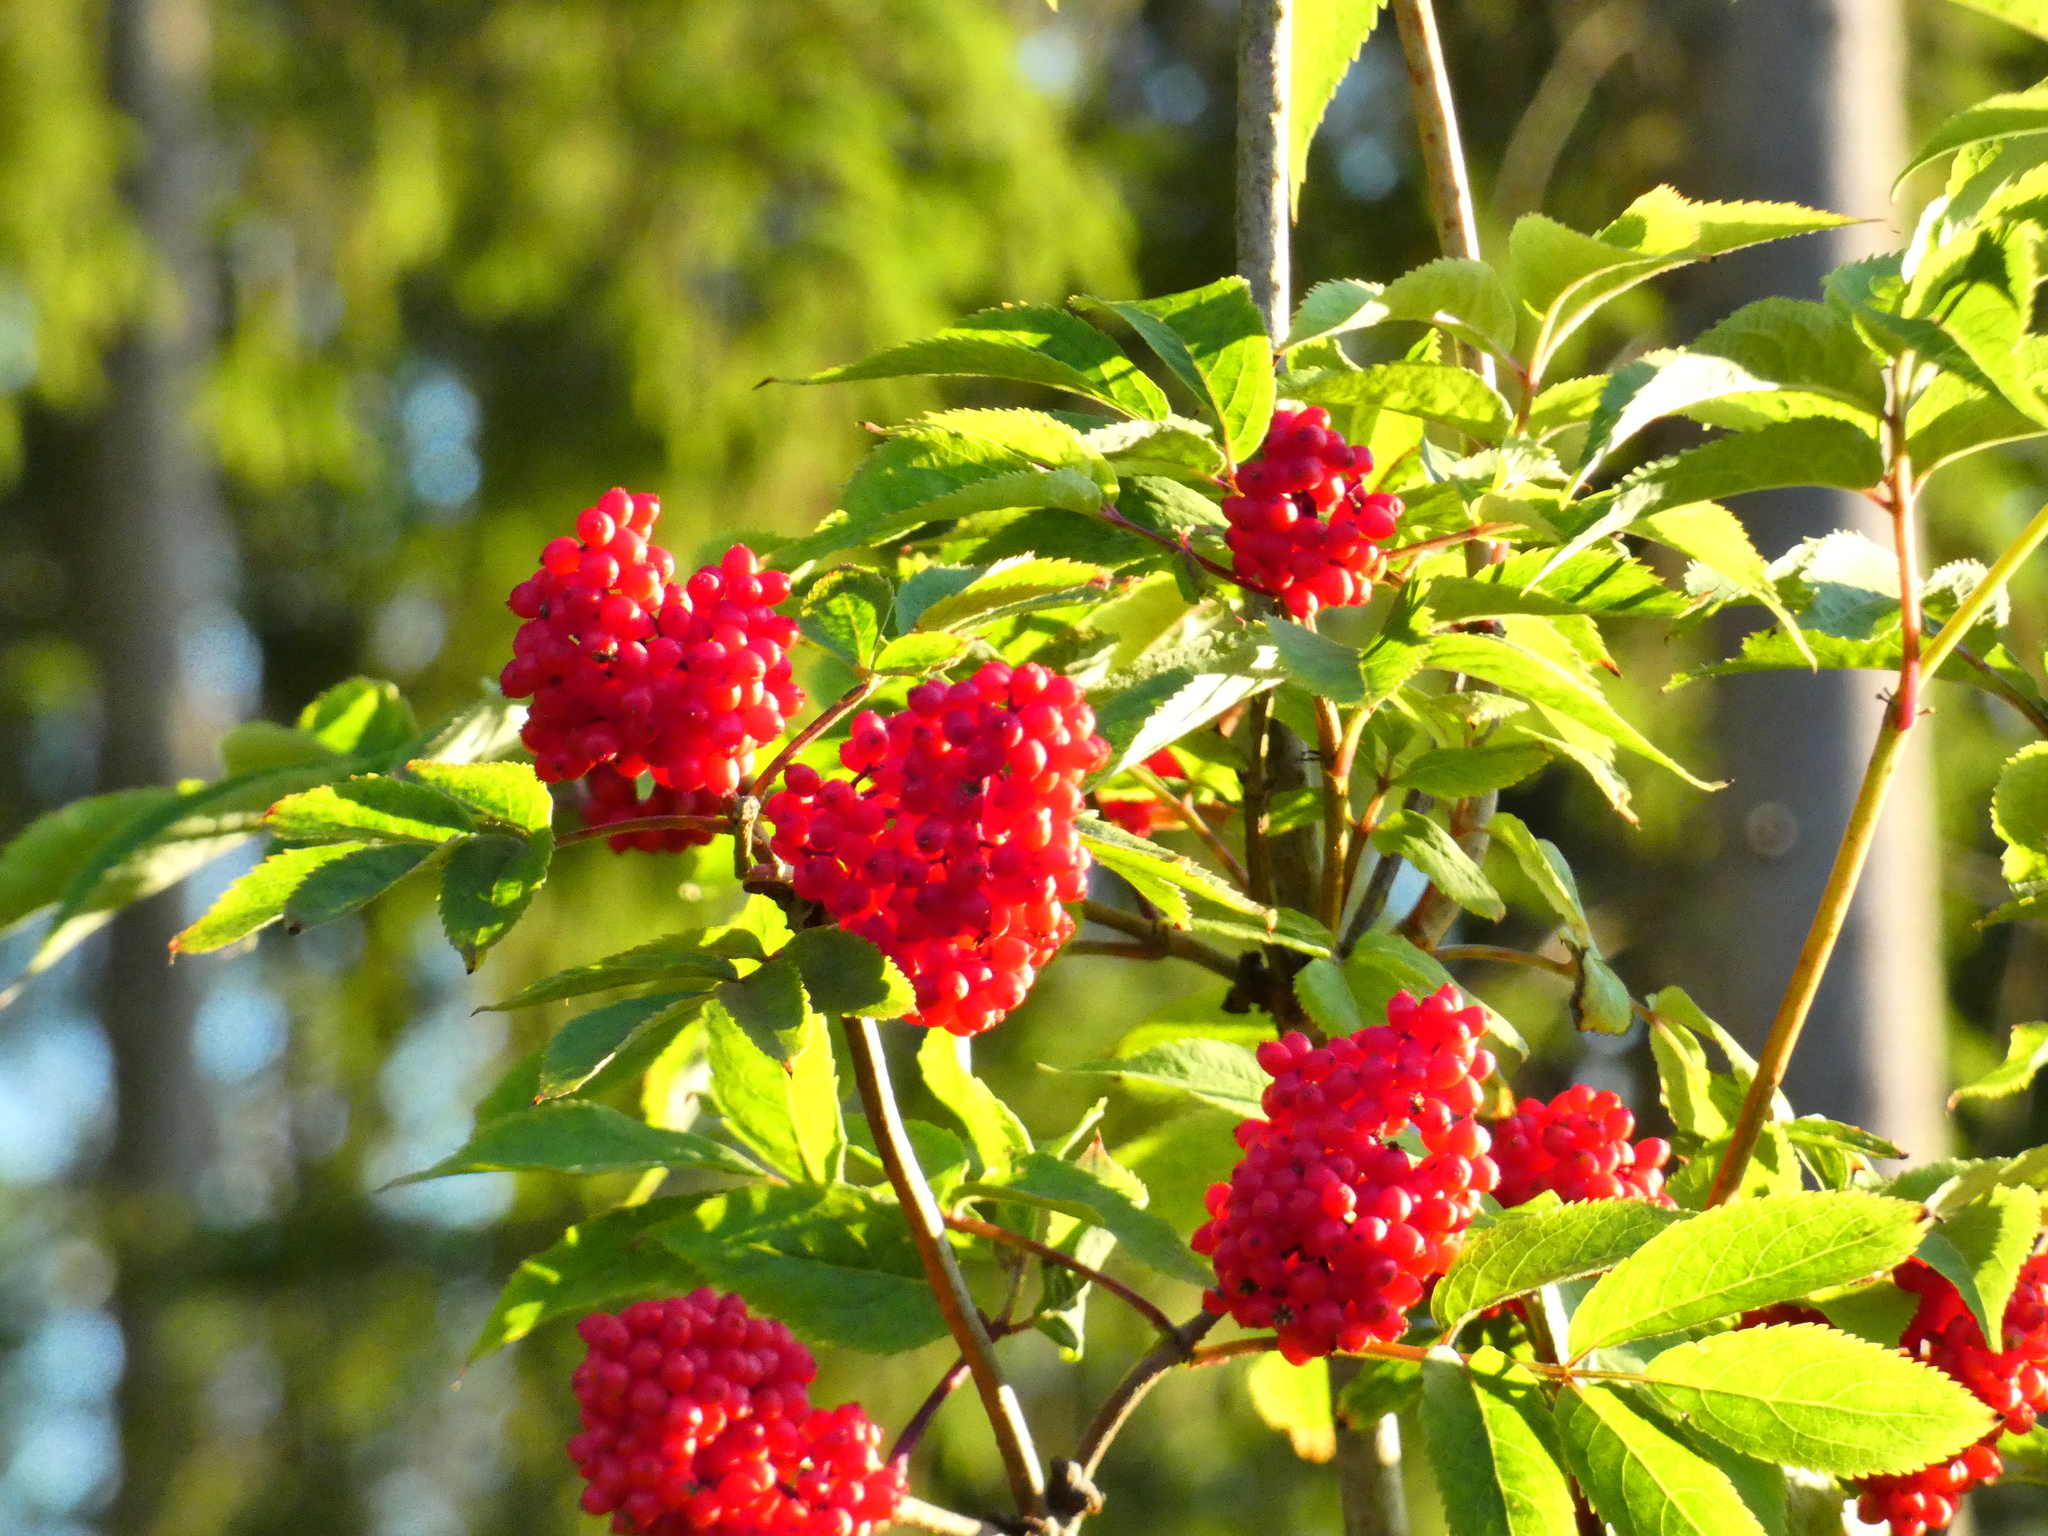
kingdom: Plantae
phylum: Tracheophyta
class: Magnoliopsida
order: Dipsacales
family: Viburnaceae
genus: Sambucus
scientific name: Sambucus racemosa
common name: Red-berried elder
